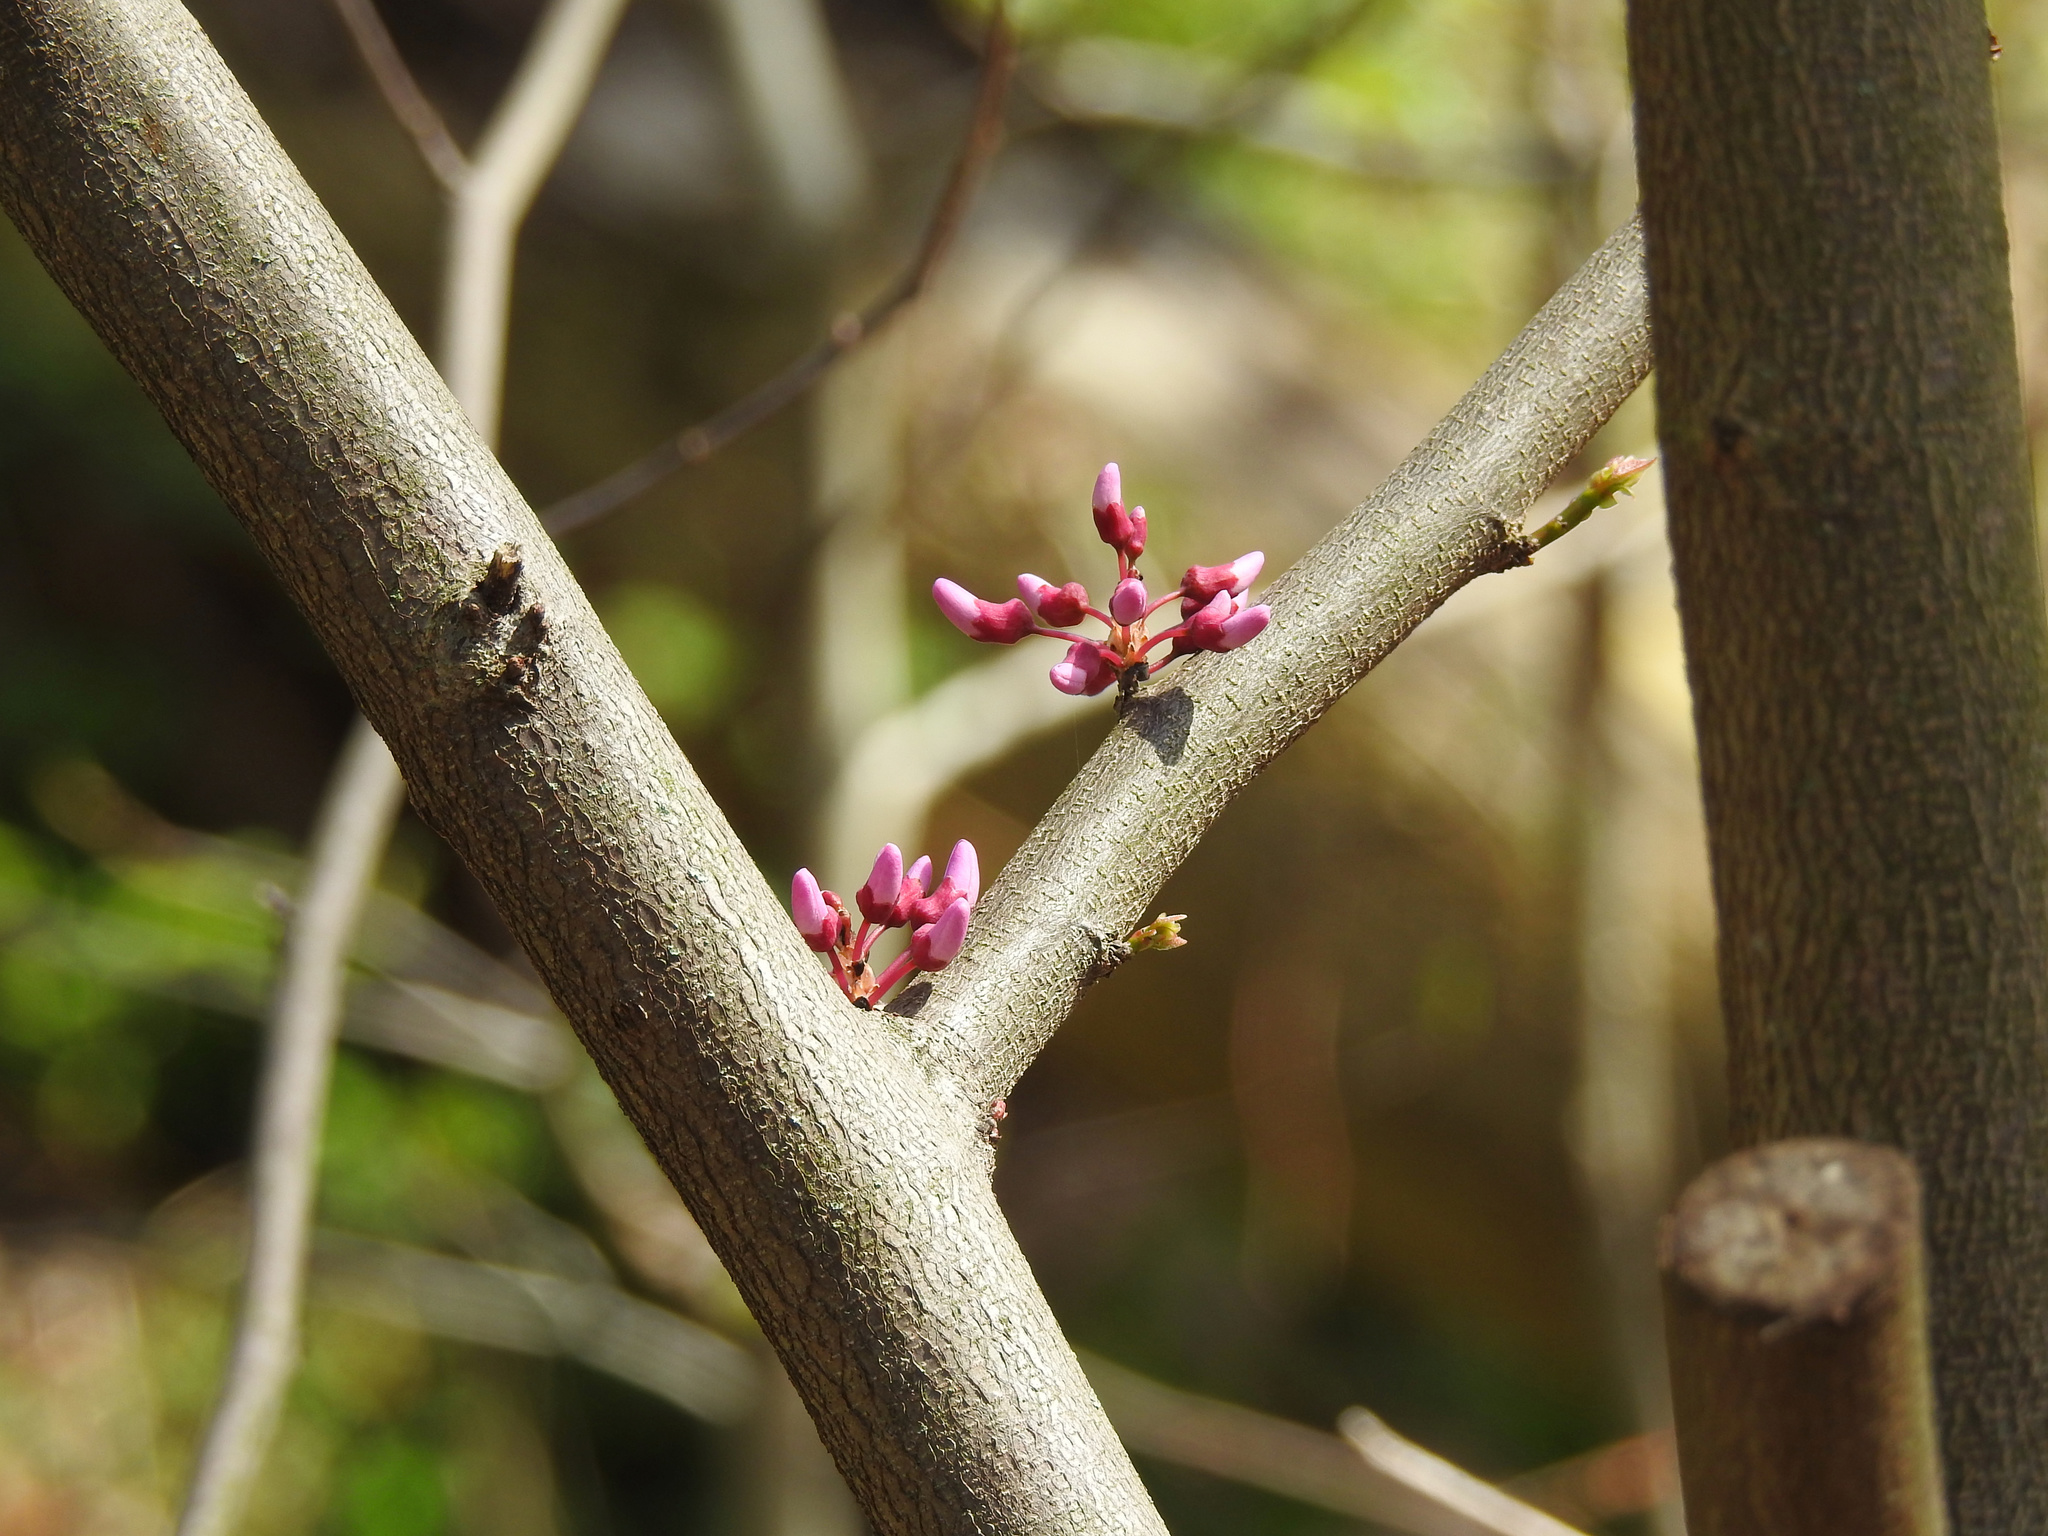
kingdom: Plantae
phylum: Tracheophyta
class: Magnoliopsida
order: Fabales
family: Fabaceae
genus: Cercis
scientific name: Cercis canadensis
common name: Eastern redbud
